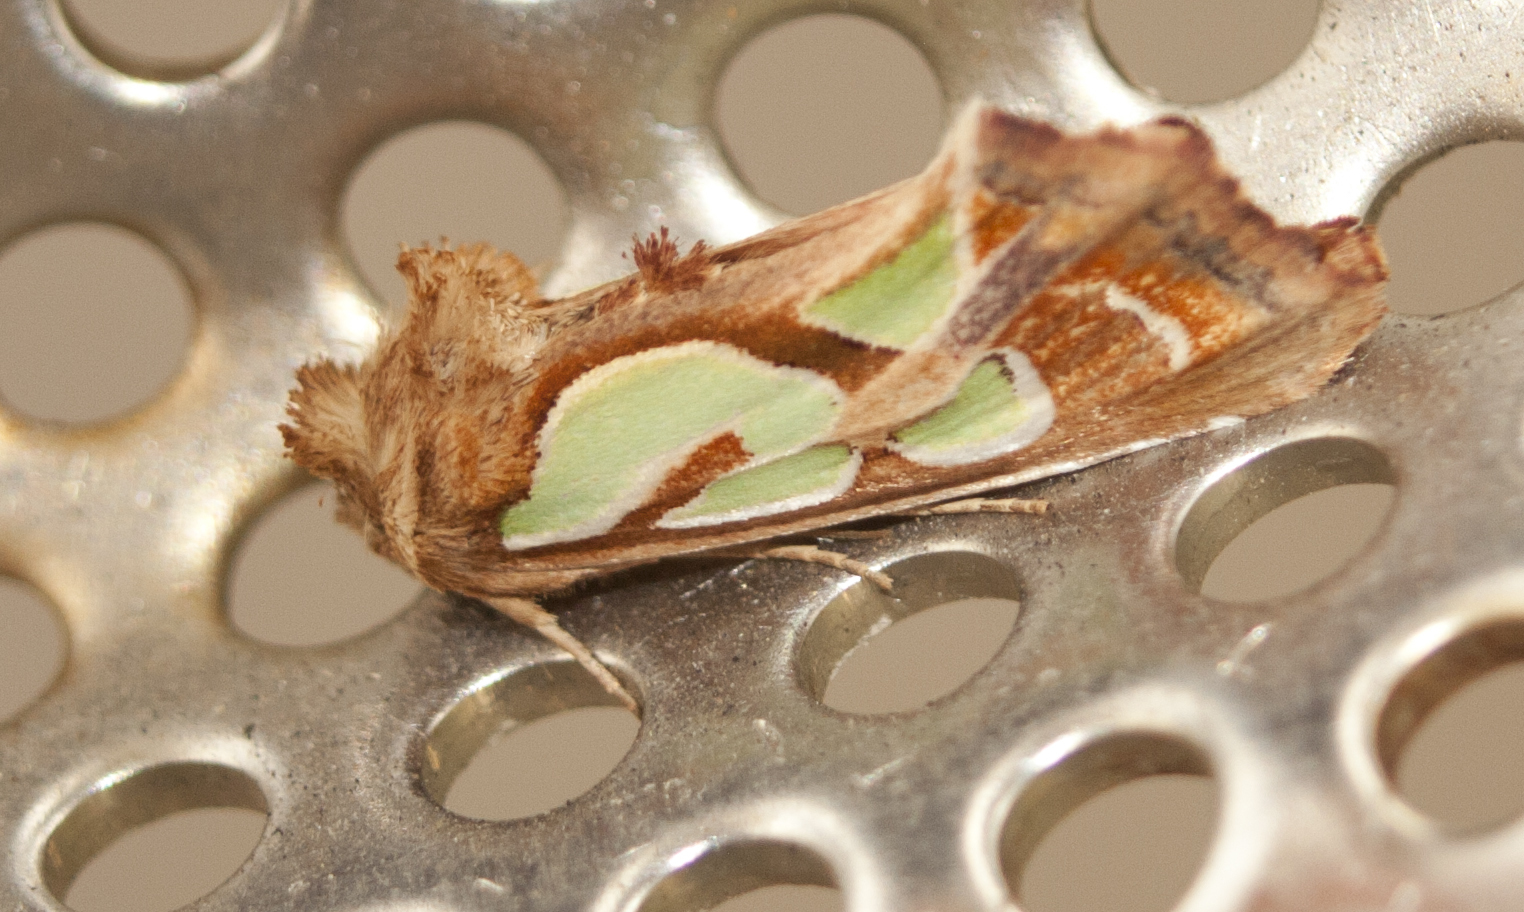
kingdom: Animalia
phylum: Arthropoda
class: Insecta
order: Lepidoptera
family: Noctuidae
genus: Cosmodes
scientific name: Cosmodes elegans
